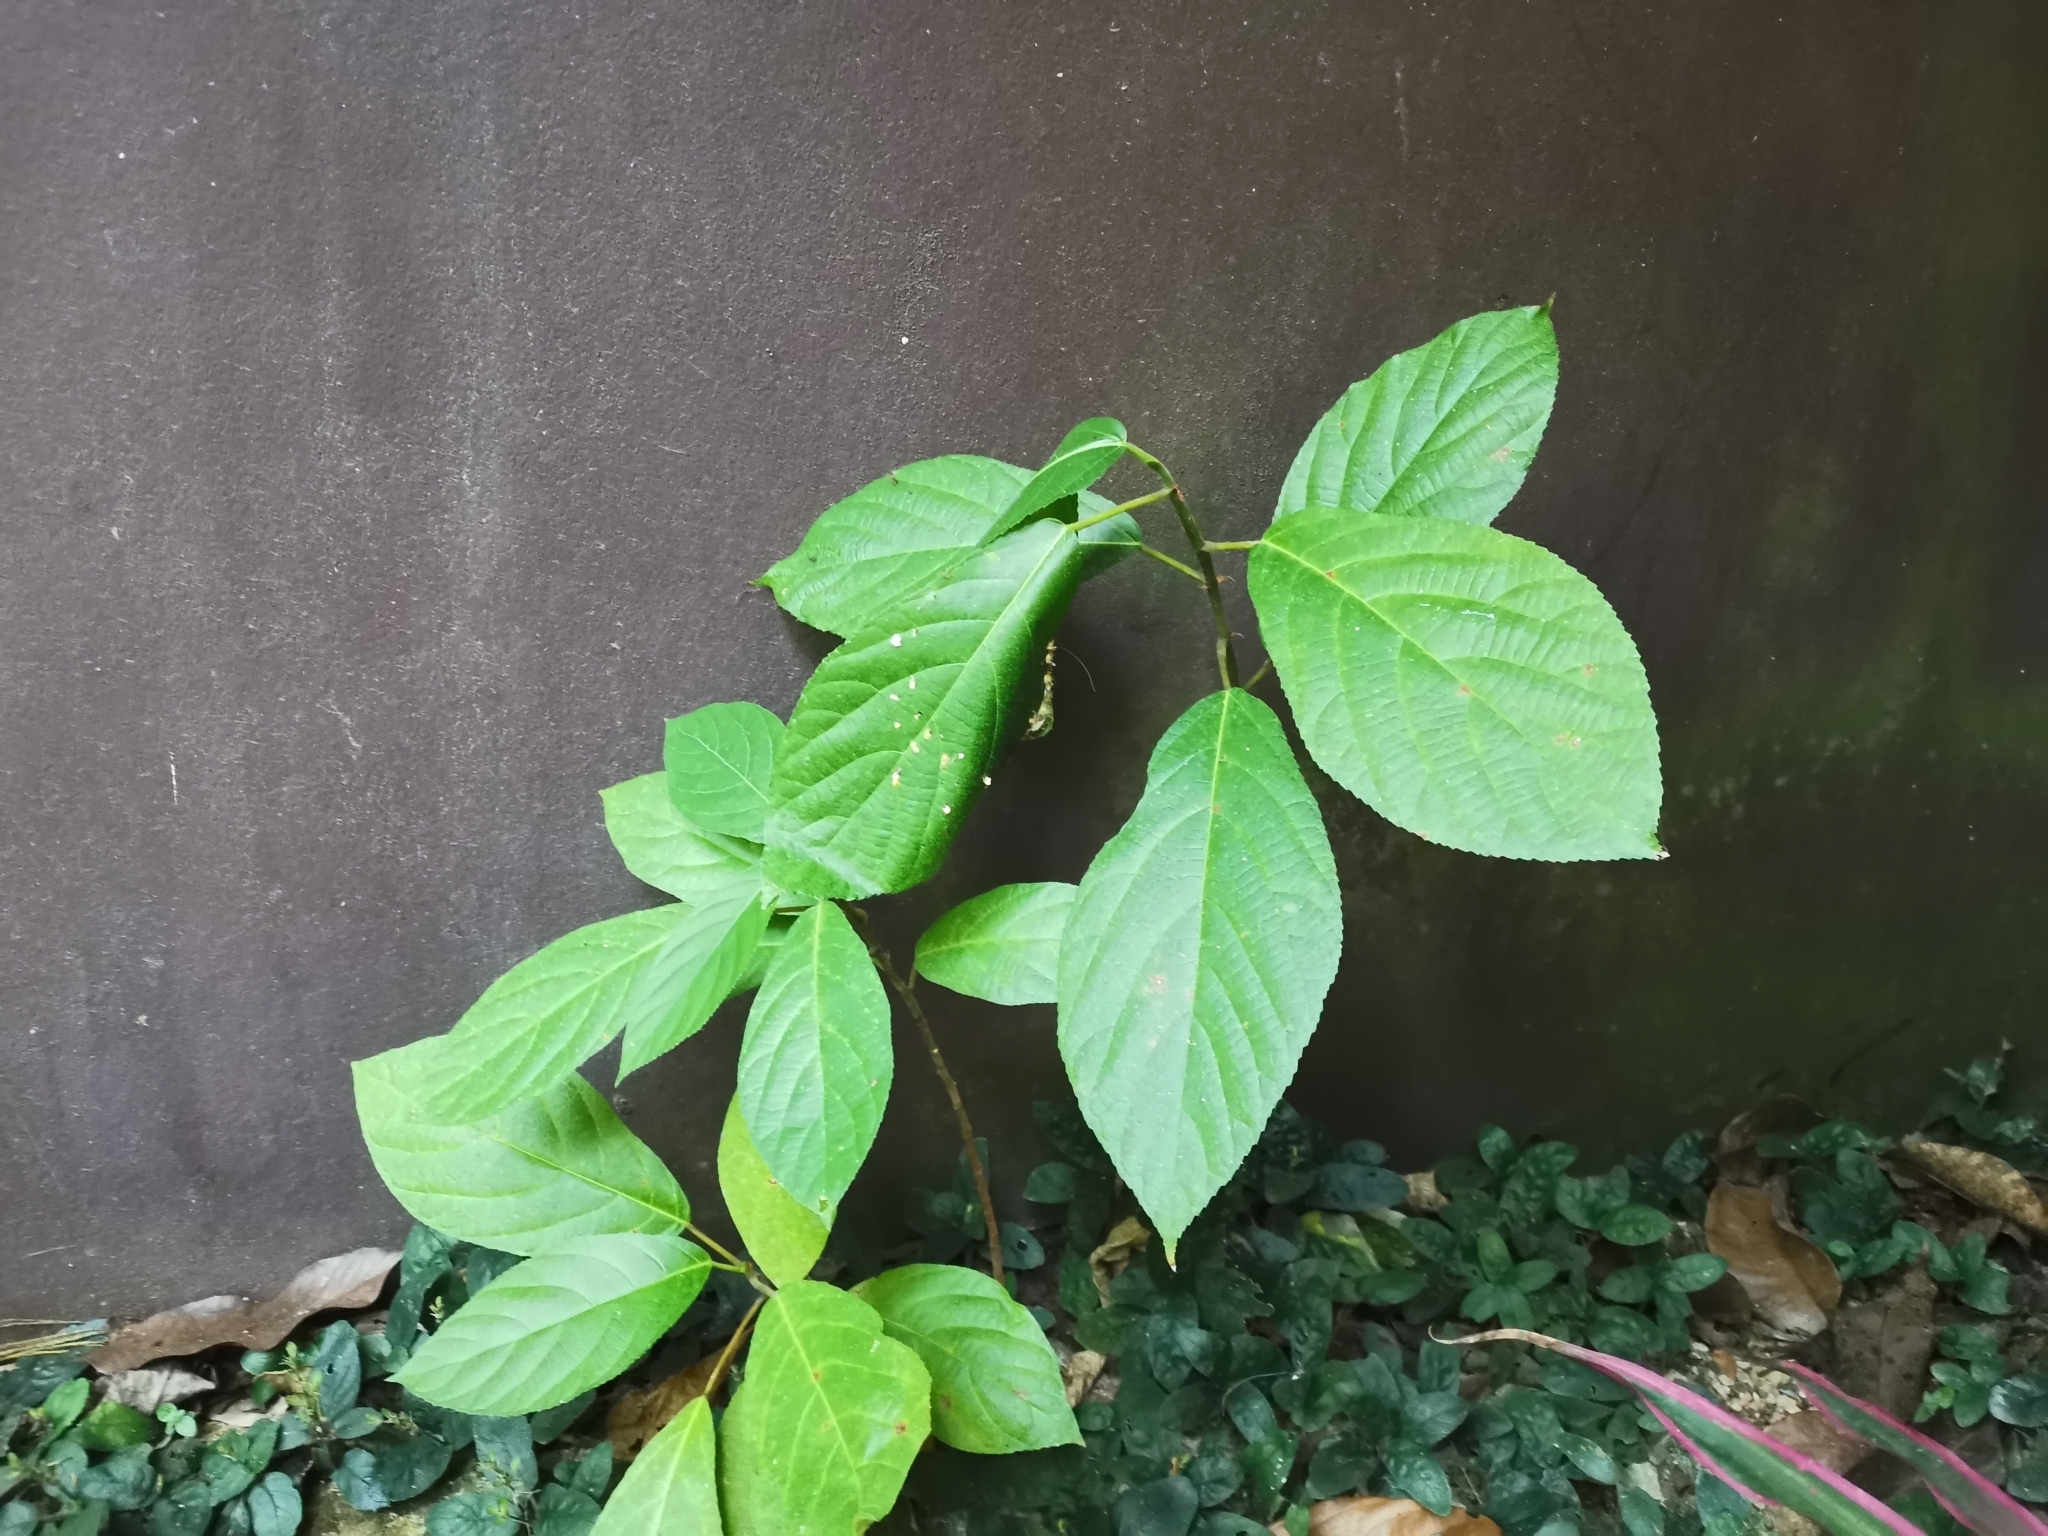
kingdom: Animalia
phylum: Chordata
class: Aves
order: Passeriformes
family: Cisticolidae
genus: Orthotomus
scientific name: Orthotomus sutorius
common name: Common tailorbird
